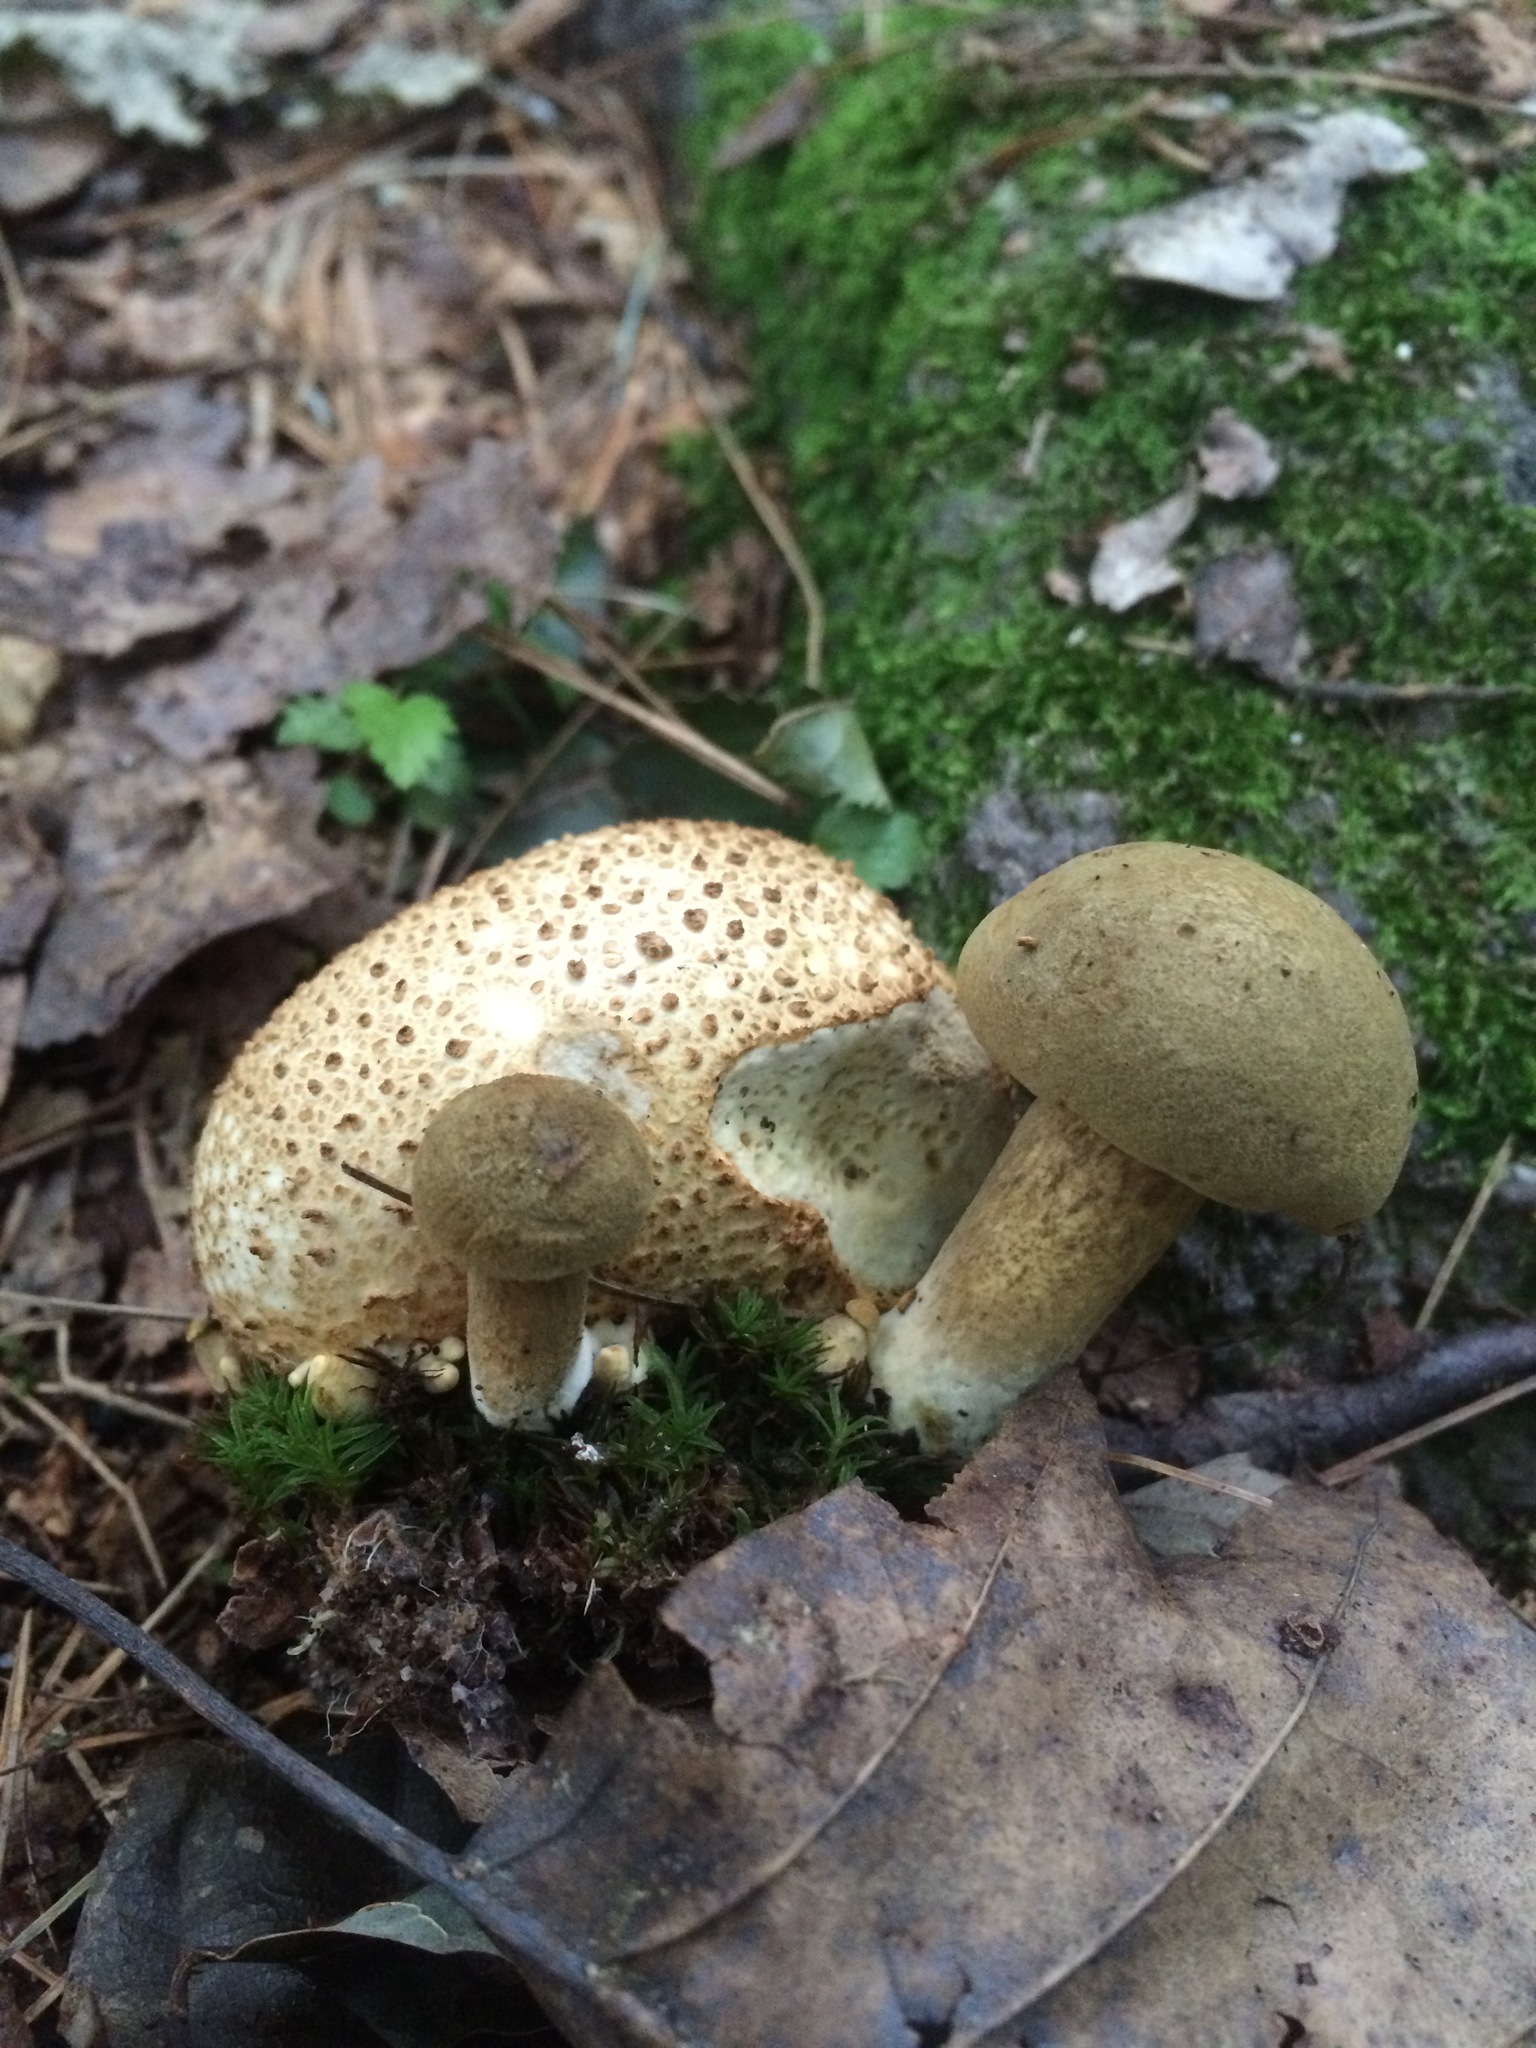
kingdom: Fungi
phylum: Basidiomycota
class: Agaricomycetes
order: Boletales
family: Boletaceae
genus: Pseudoboletus
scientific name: Pseudoboletus parasiticus
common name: Parasitic bolete
